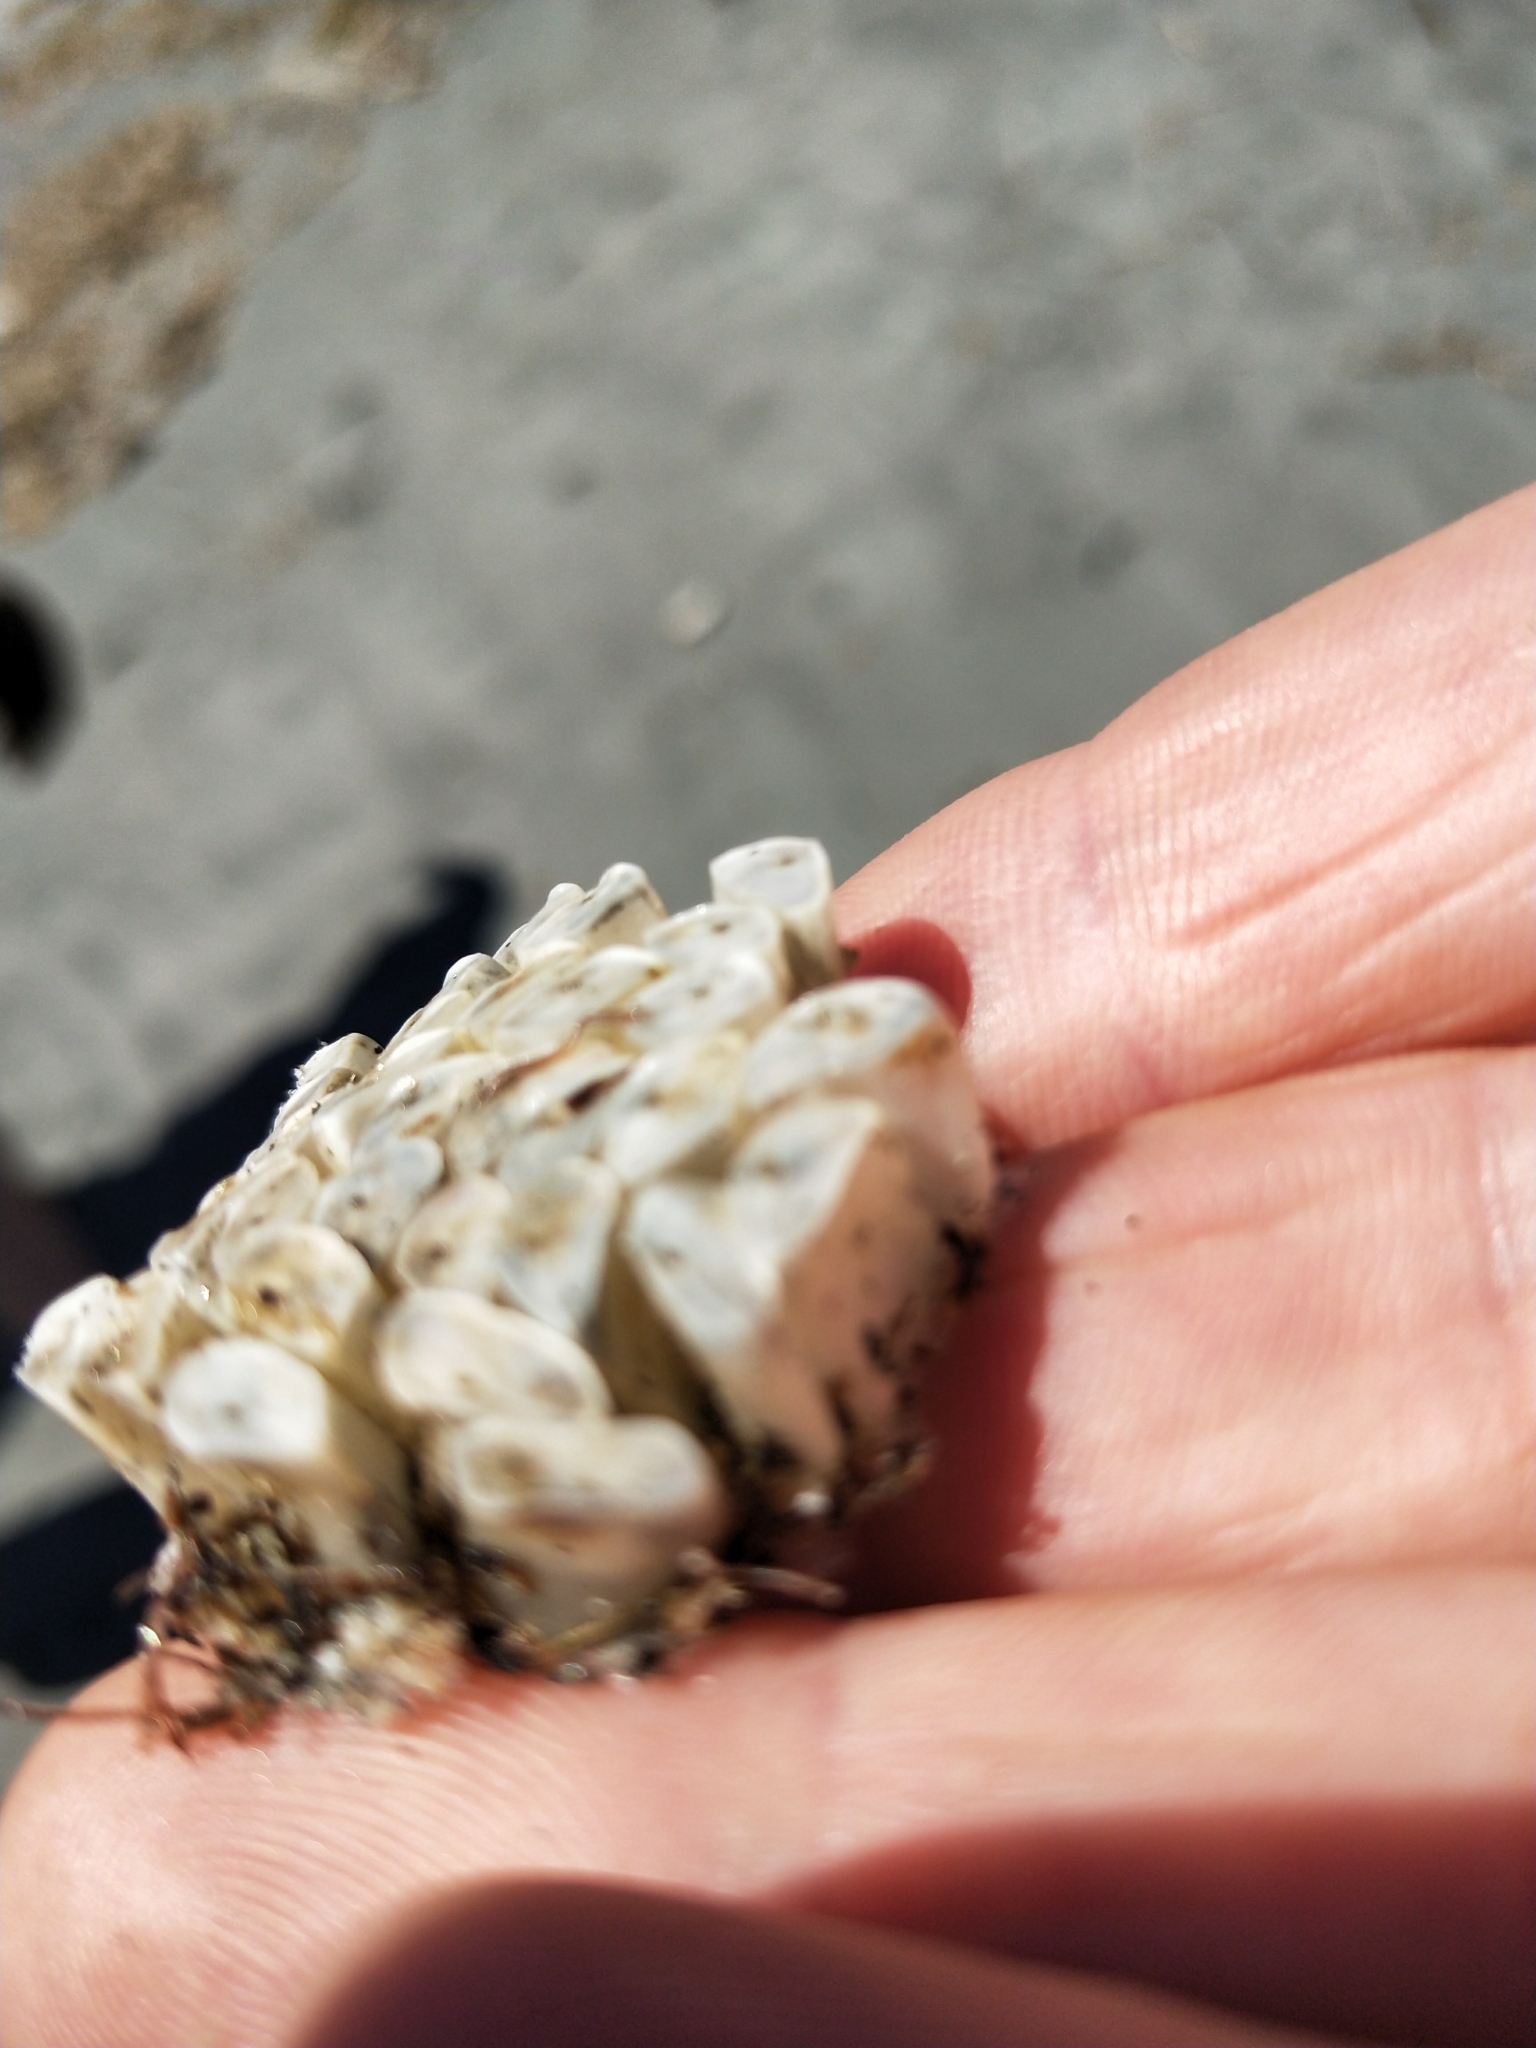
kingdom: Animalia
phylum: Mollusca
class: Gastropoda
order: Neogastropoda
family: Muricidae
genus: Dicathais
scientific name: Dicathais orbita
